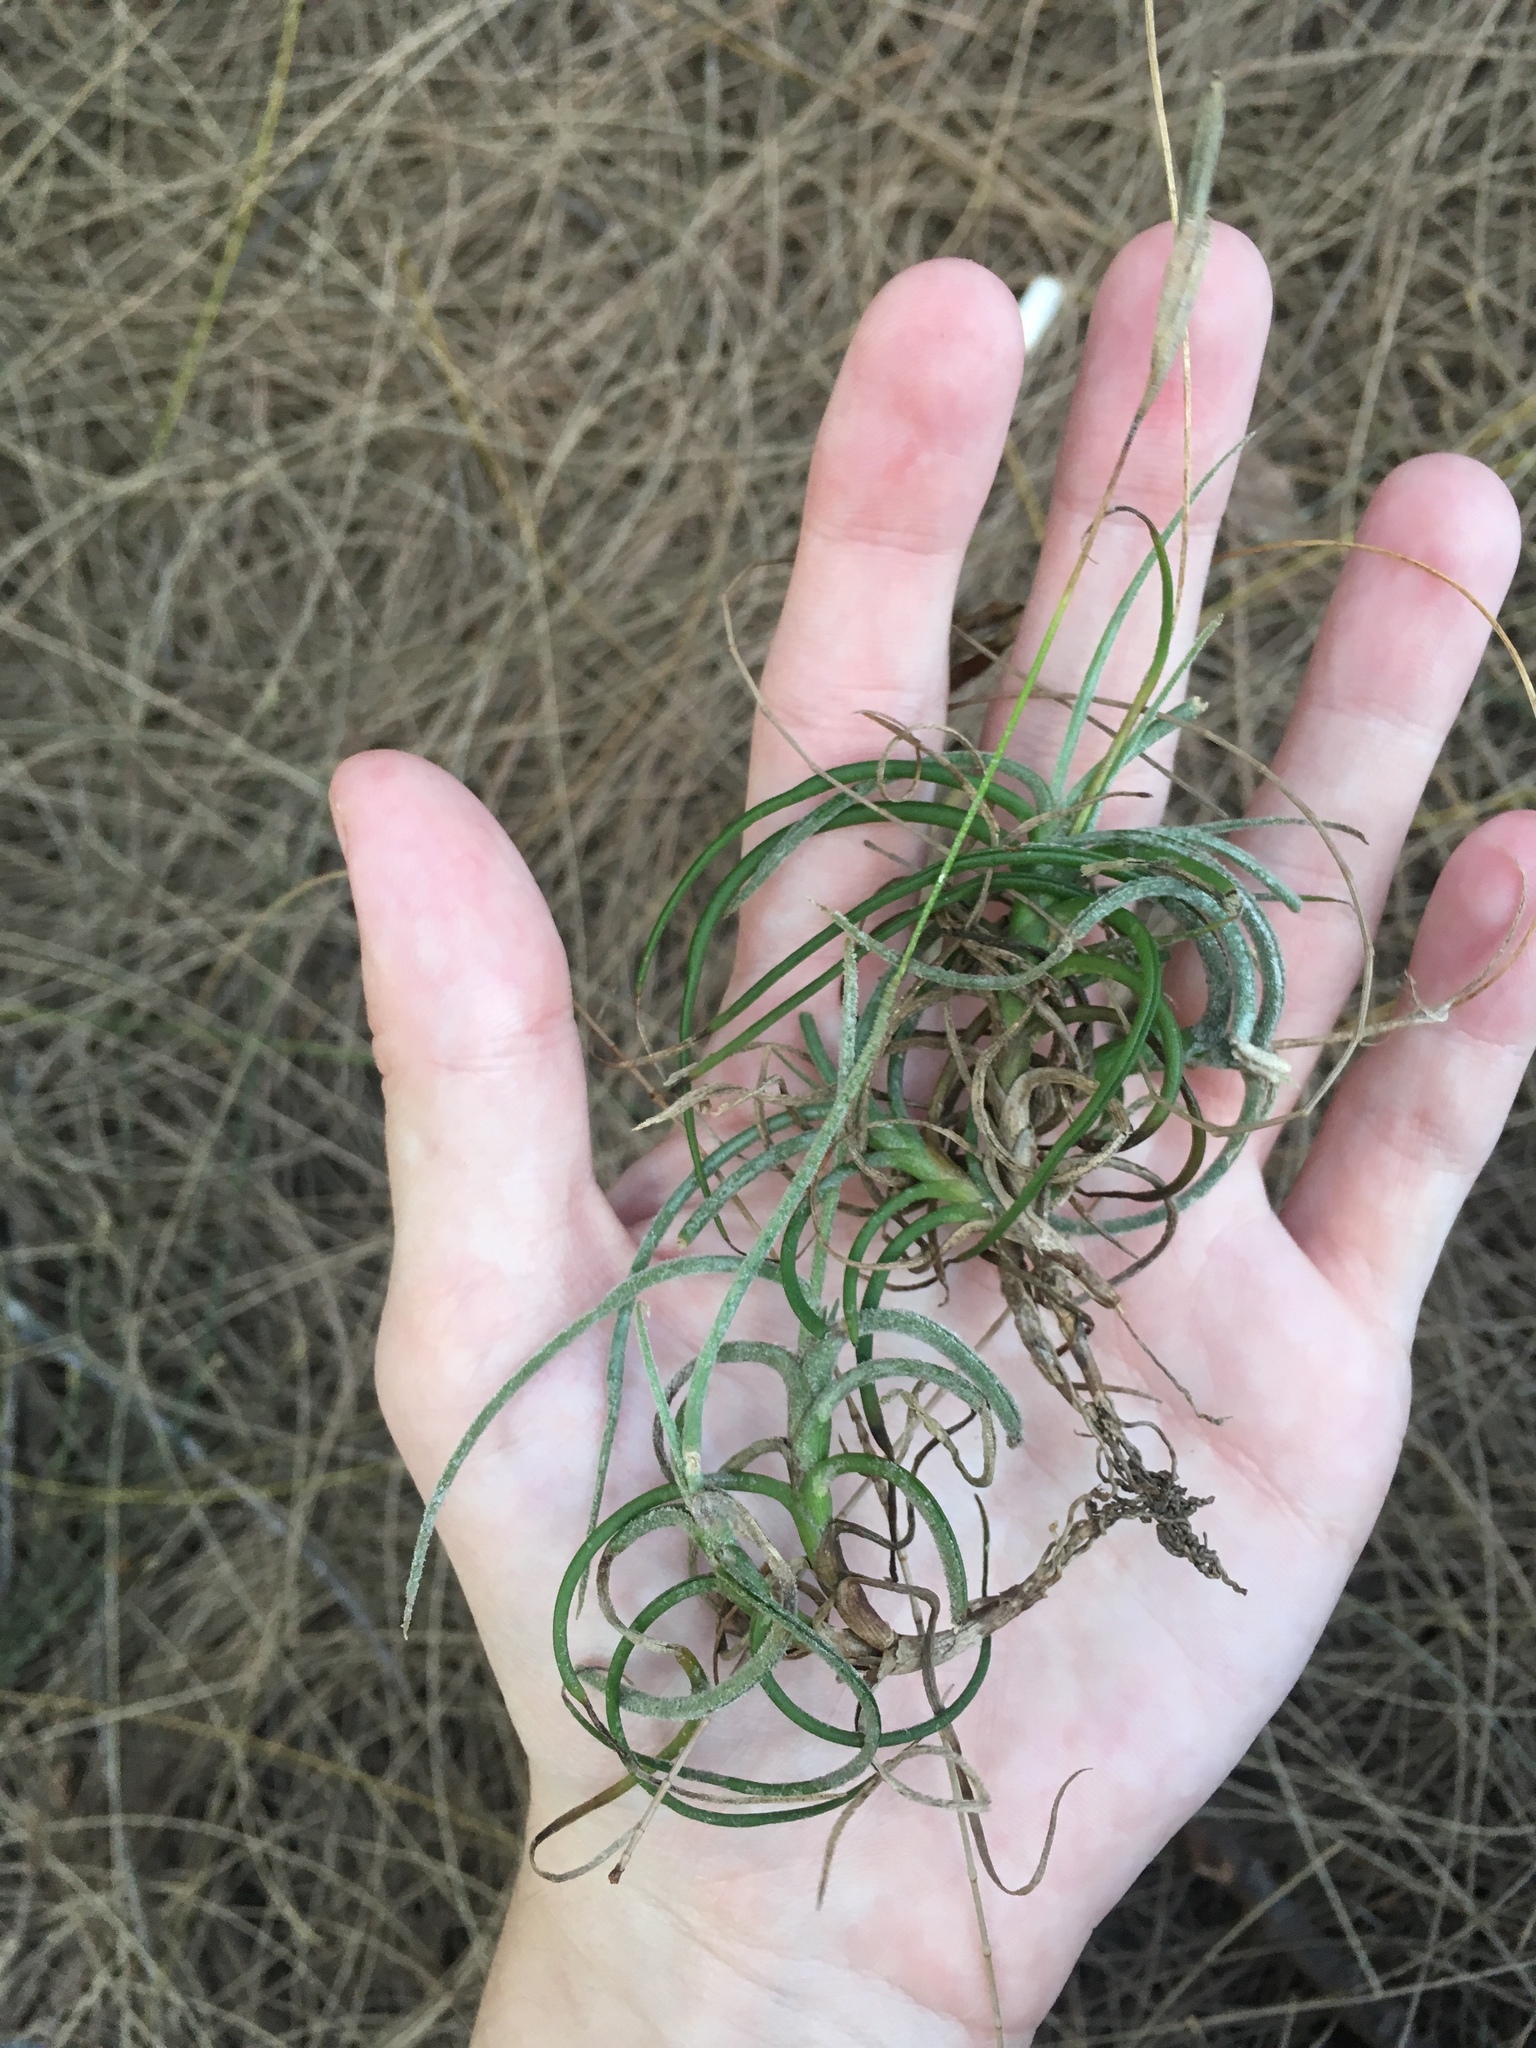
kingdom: Plantae
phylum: Tracheophyta
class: Liliopsida
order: Poales
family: Bromeliaceae
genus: Tillandsia
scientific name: Tillandsia recurvata
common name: Small ballmoss
